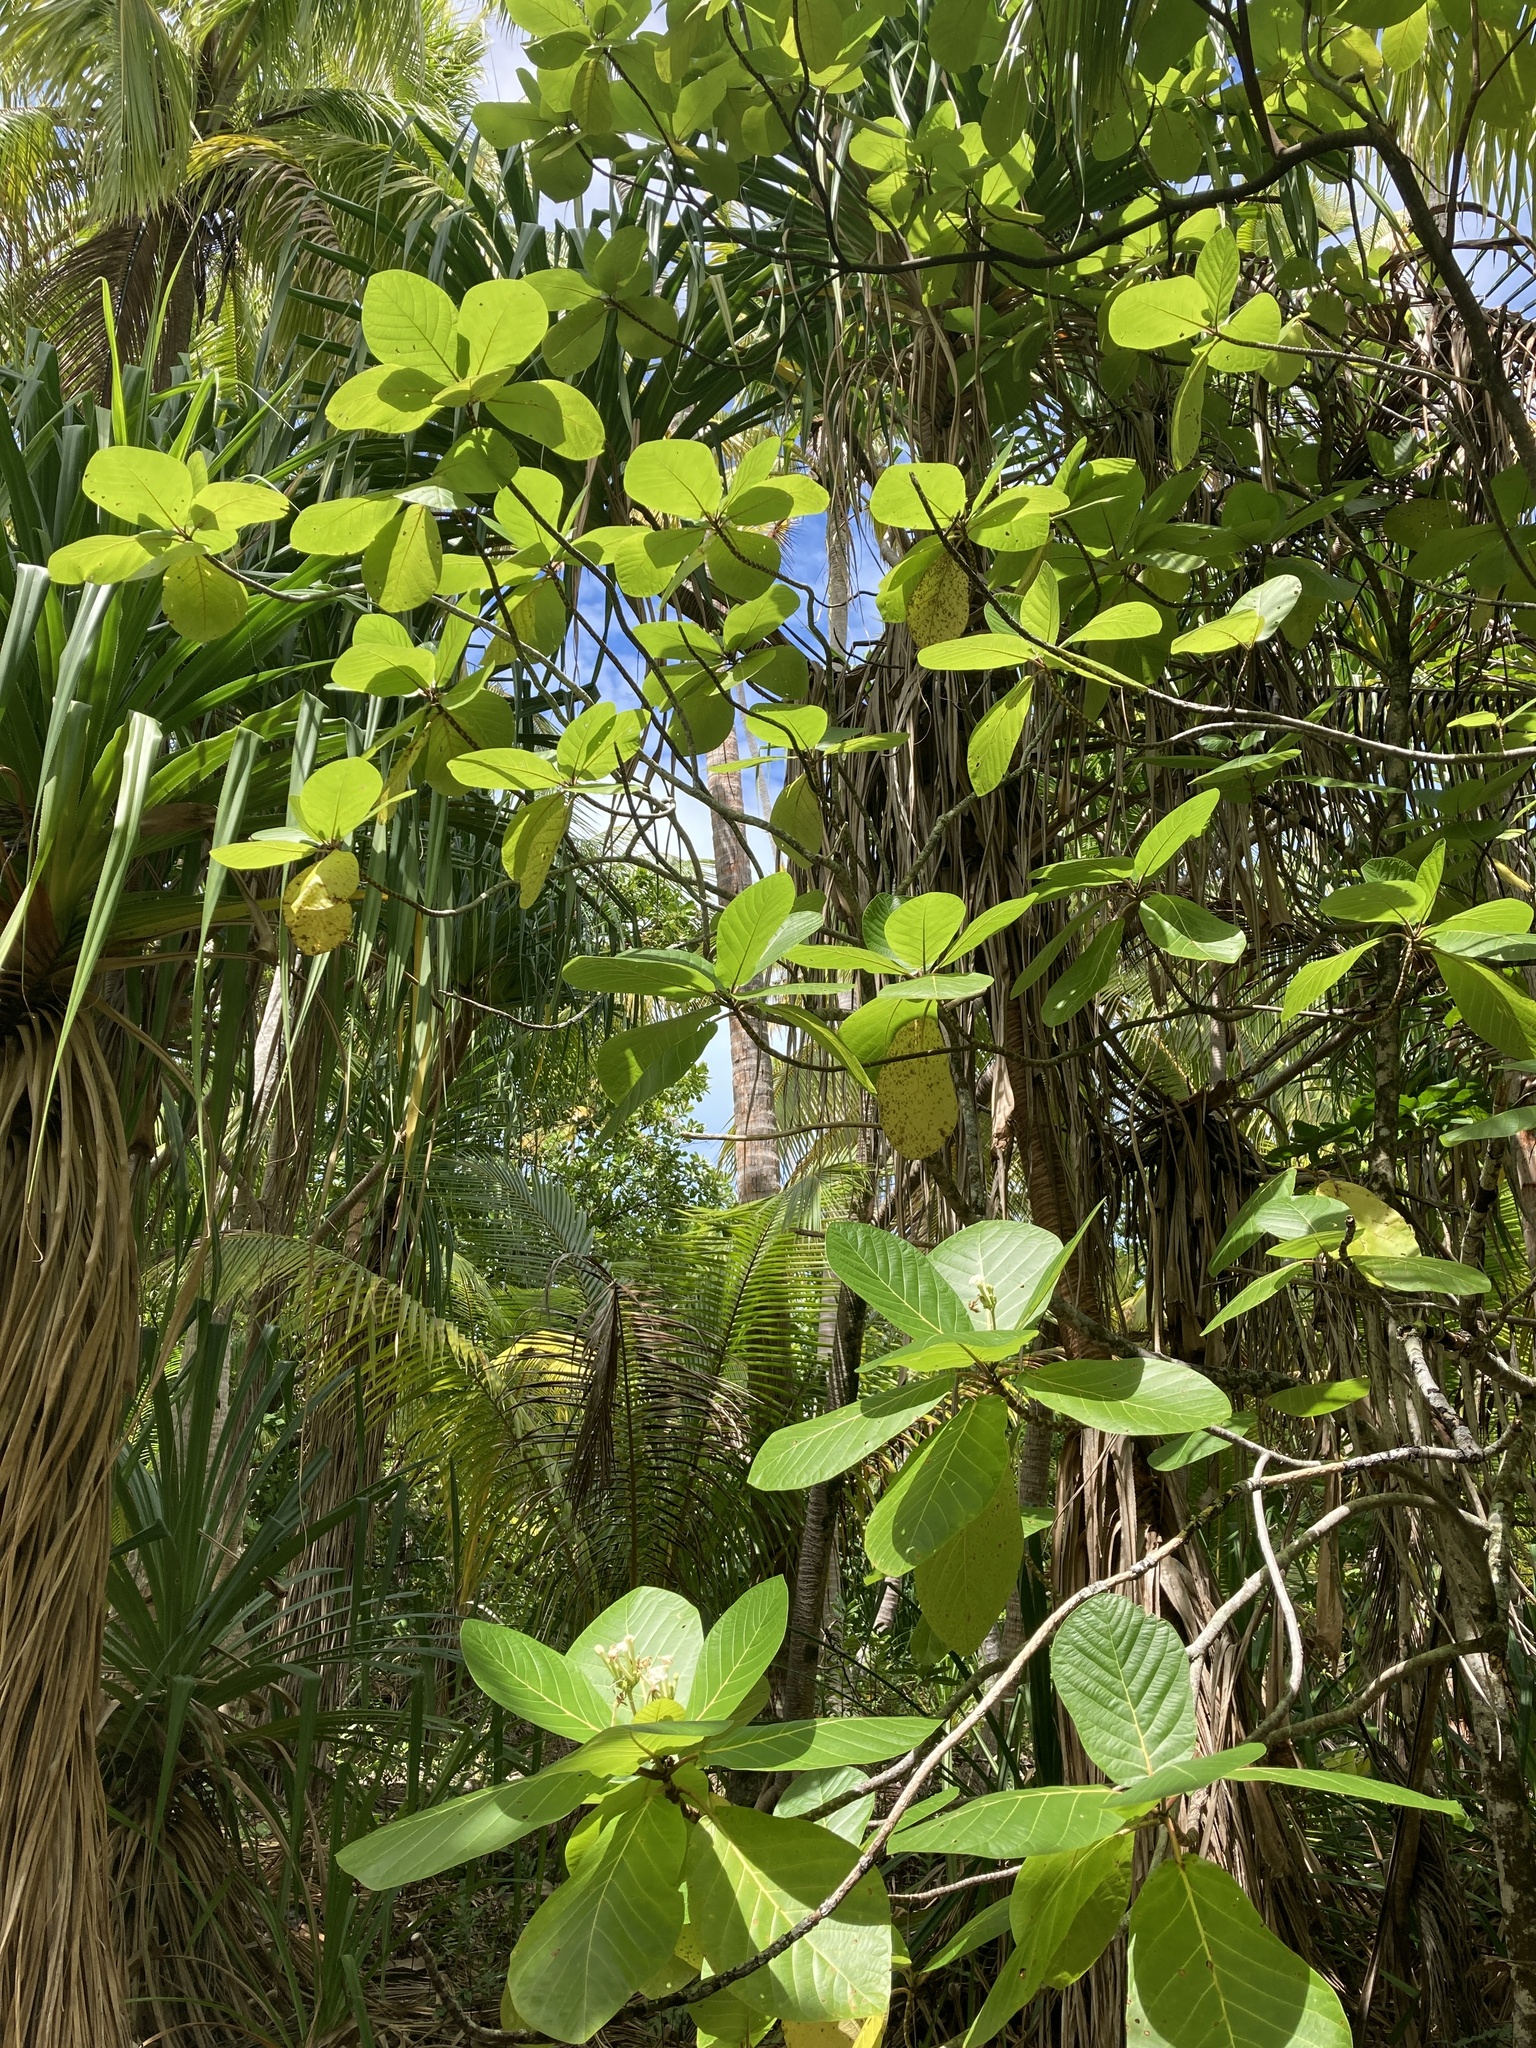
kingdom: Plantae
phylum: Tracheophyta
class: Magnoliopsida
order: Gentianales
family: Rubiaceae
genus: Guettarda
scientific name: Guettarda speciosa
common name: Sea randa
